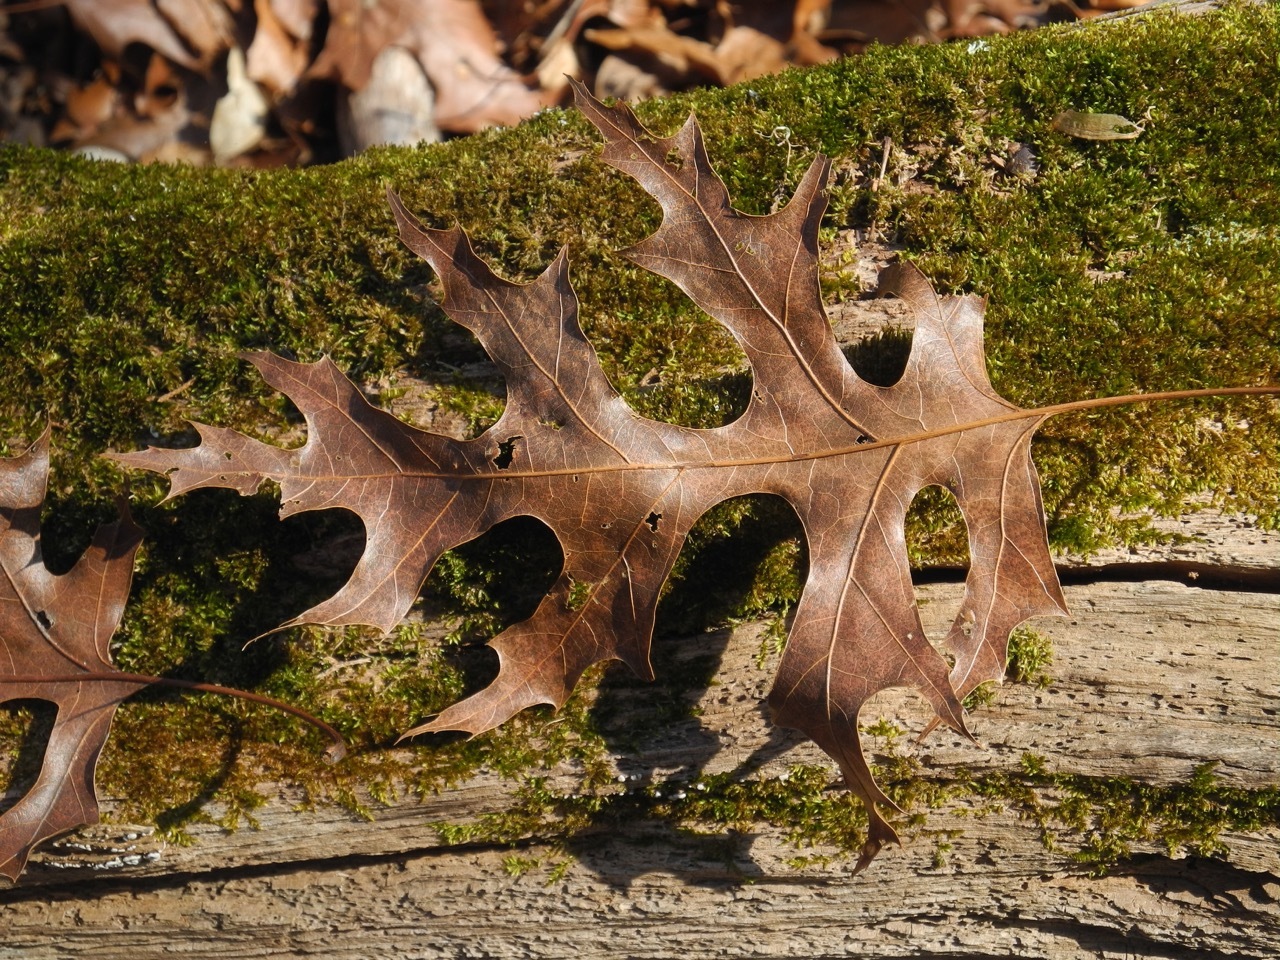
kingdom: Plantae
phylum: Tracheophyta
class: Magnoliopsida
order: Fagales
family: Fagaceae
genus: Quercus
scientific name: Quercus shumardii
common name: Shumard oak
